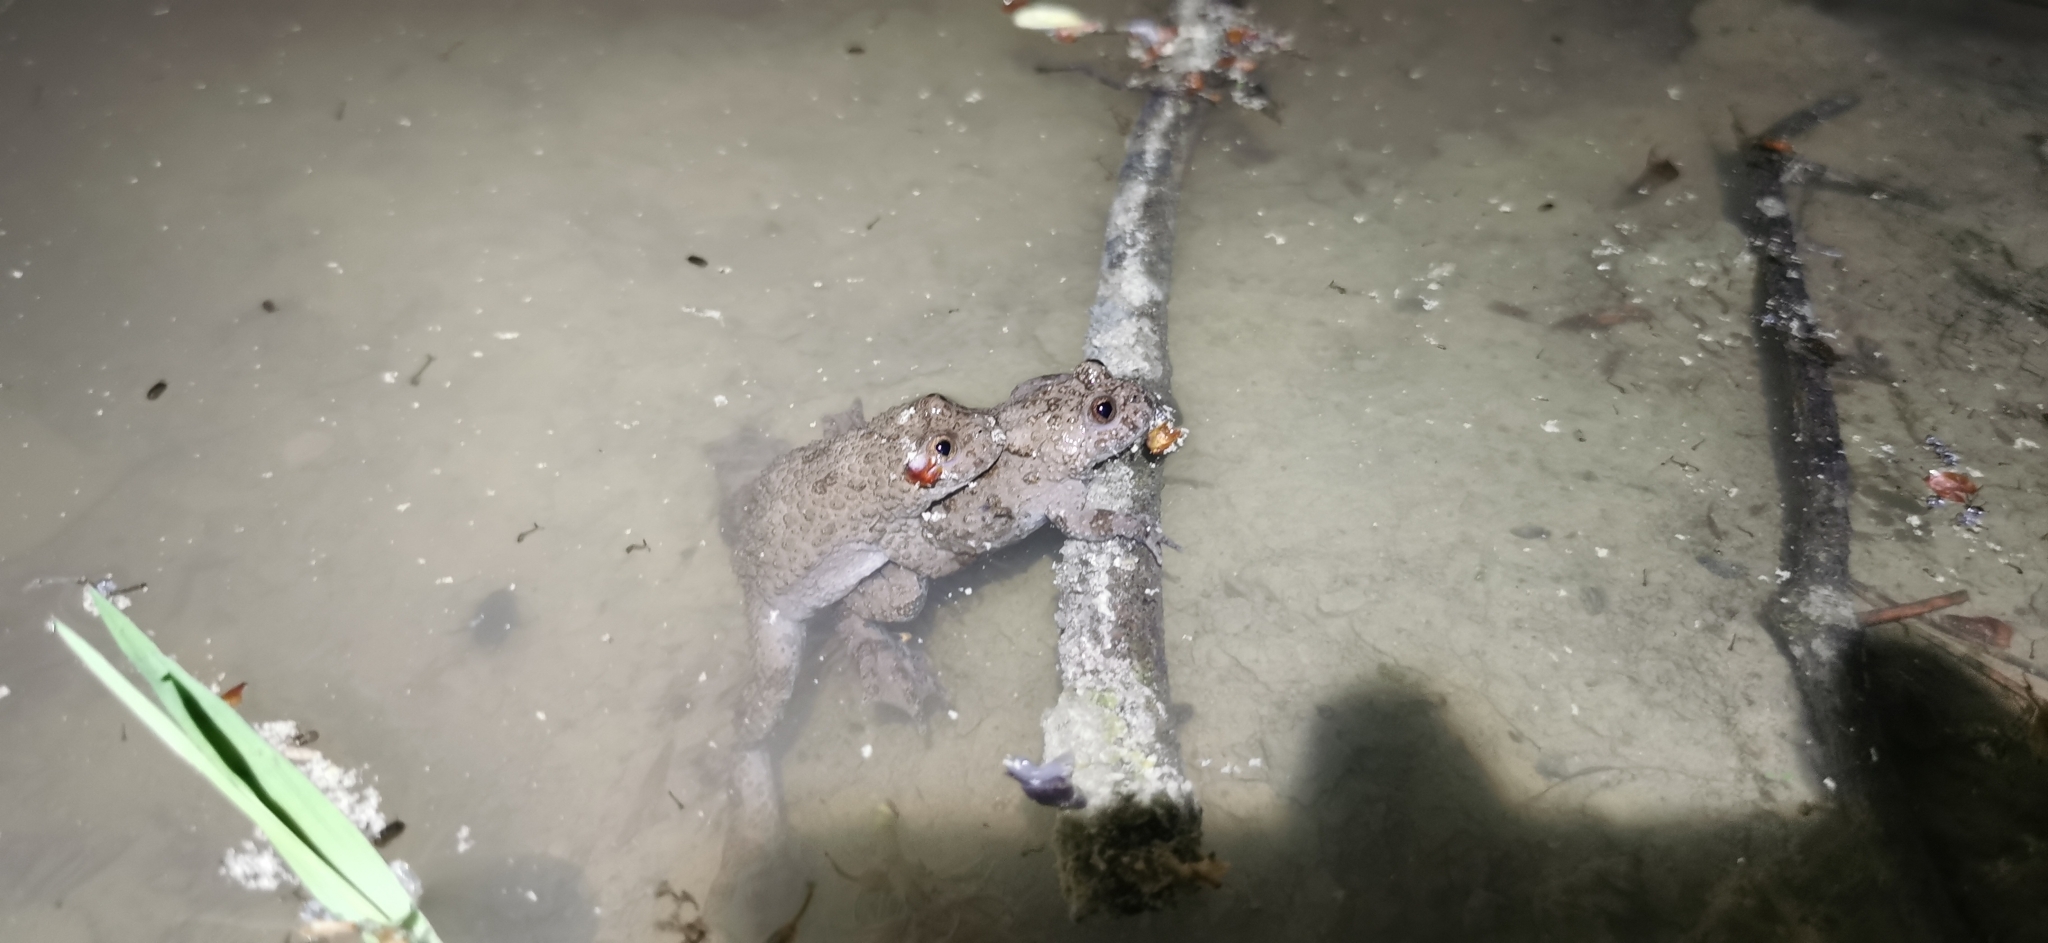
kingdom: Animalia
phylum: Chordata
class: Amphibia
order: Anura
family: Bombinatoridae
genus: Bombina
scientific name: Bombina variegata
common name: Yellow-bellied toad
